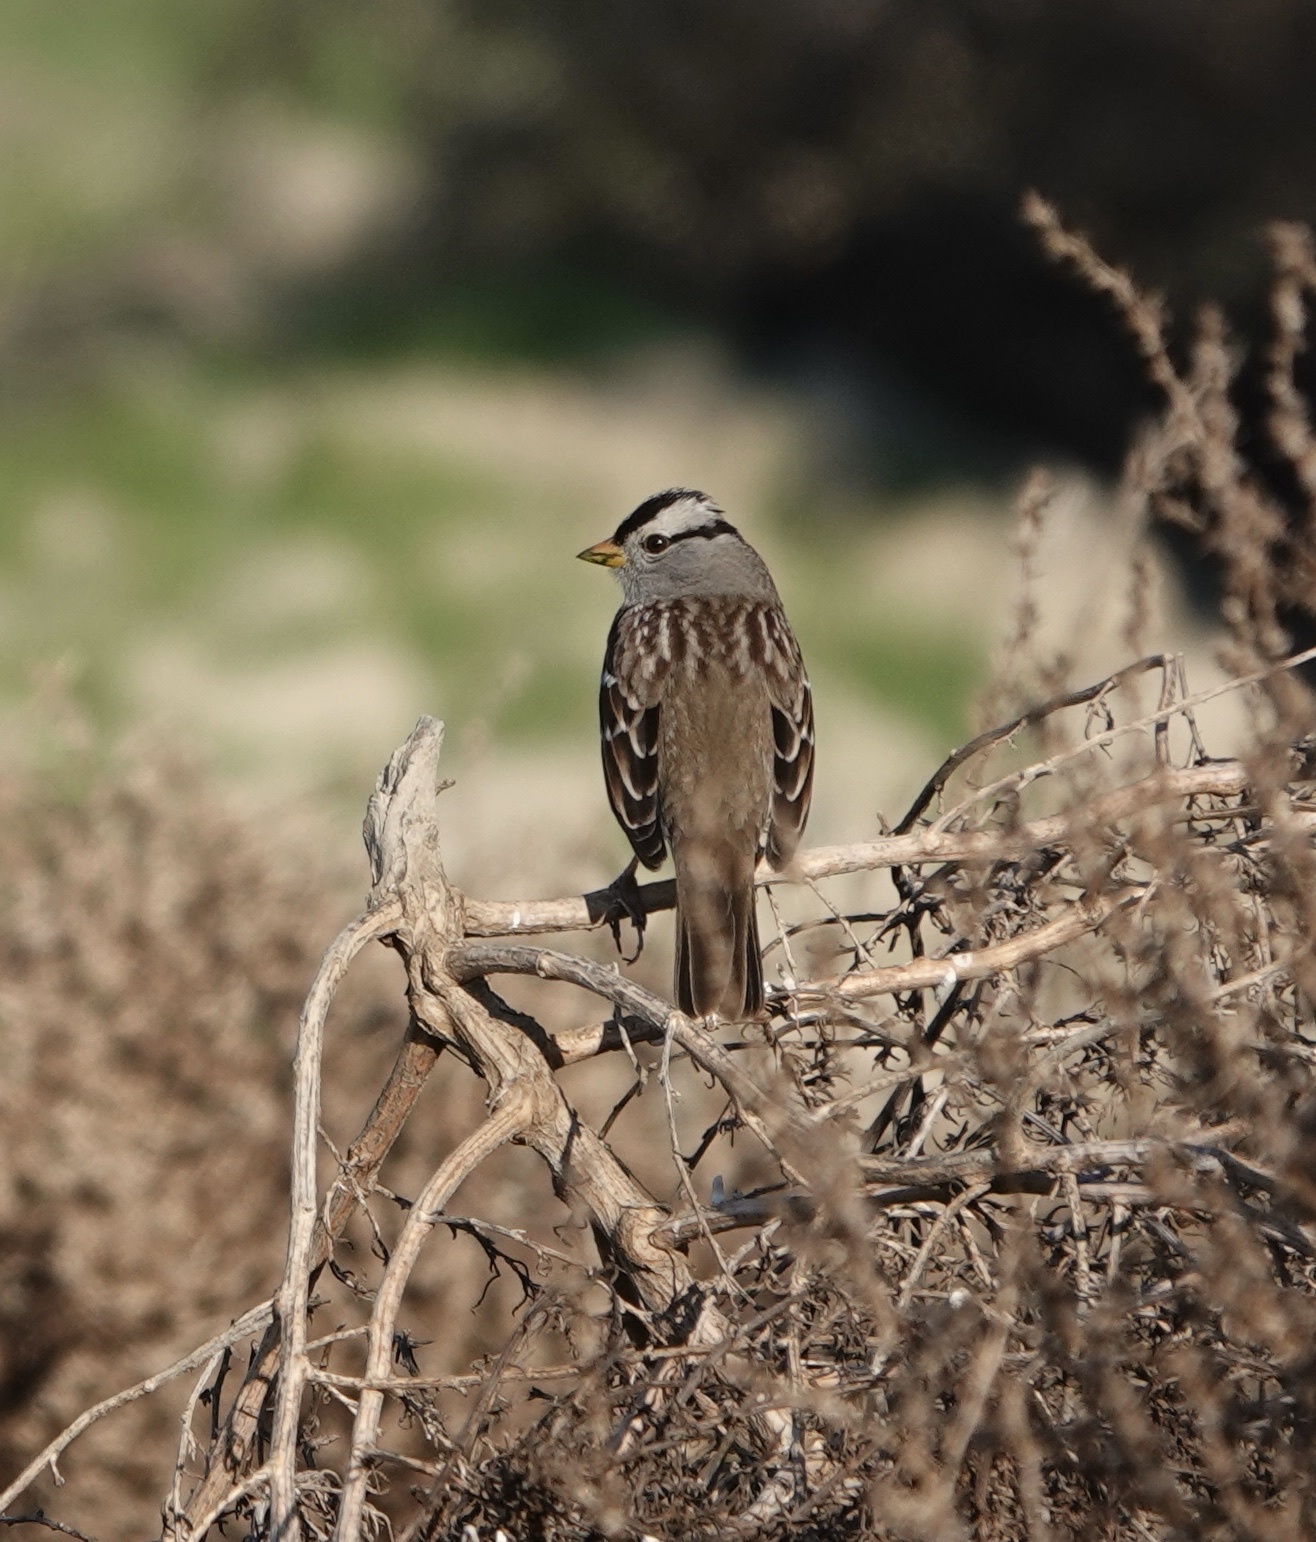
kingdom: Animalia
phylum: Chordata
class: Aves
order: Passeriformes
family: Passerellidae
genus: Zonotrichia
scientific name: Zonotrichia leucophrys
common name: White-crowned sparrow
